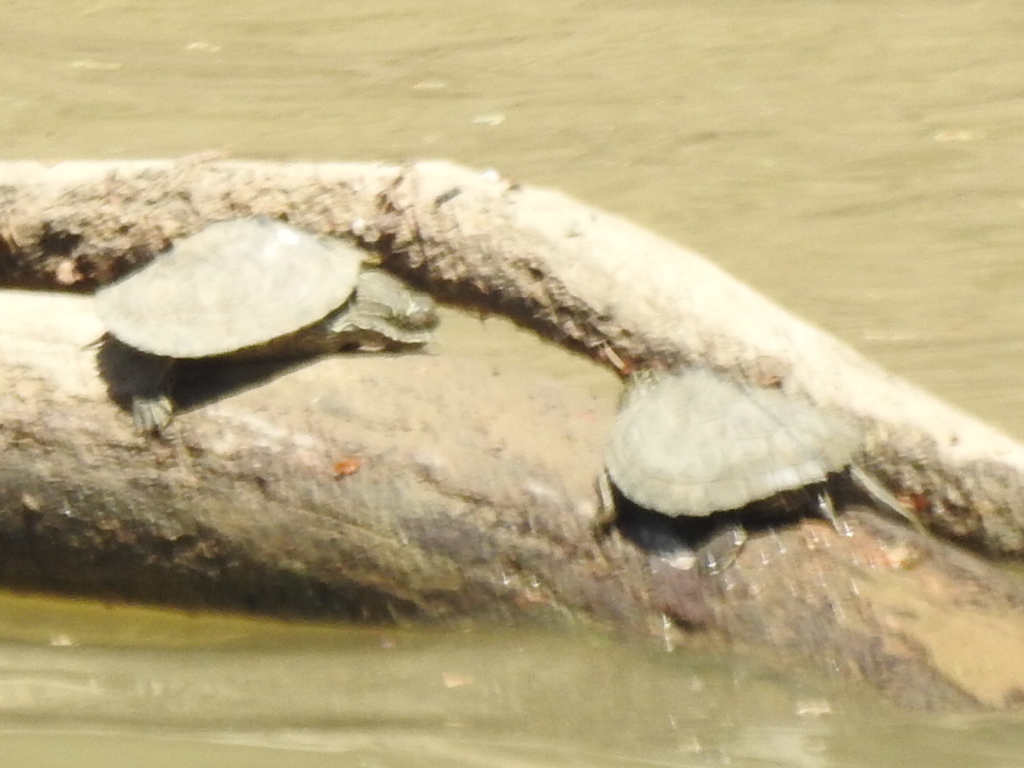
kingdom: Animalia
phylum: Chordata
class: Testudines
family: Emydidae
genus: Graptemys
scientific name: Graptemys pseudogeographica
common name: False map turtle
